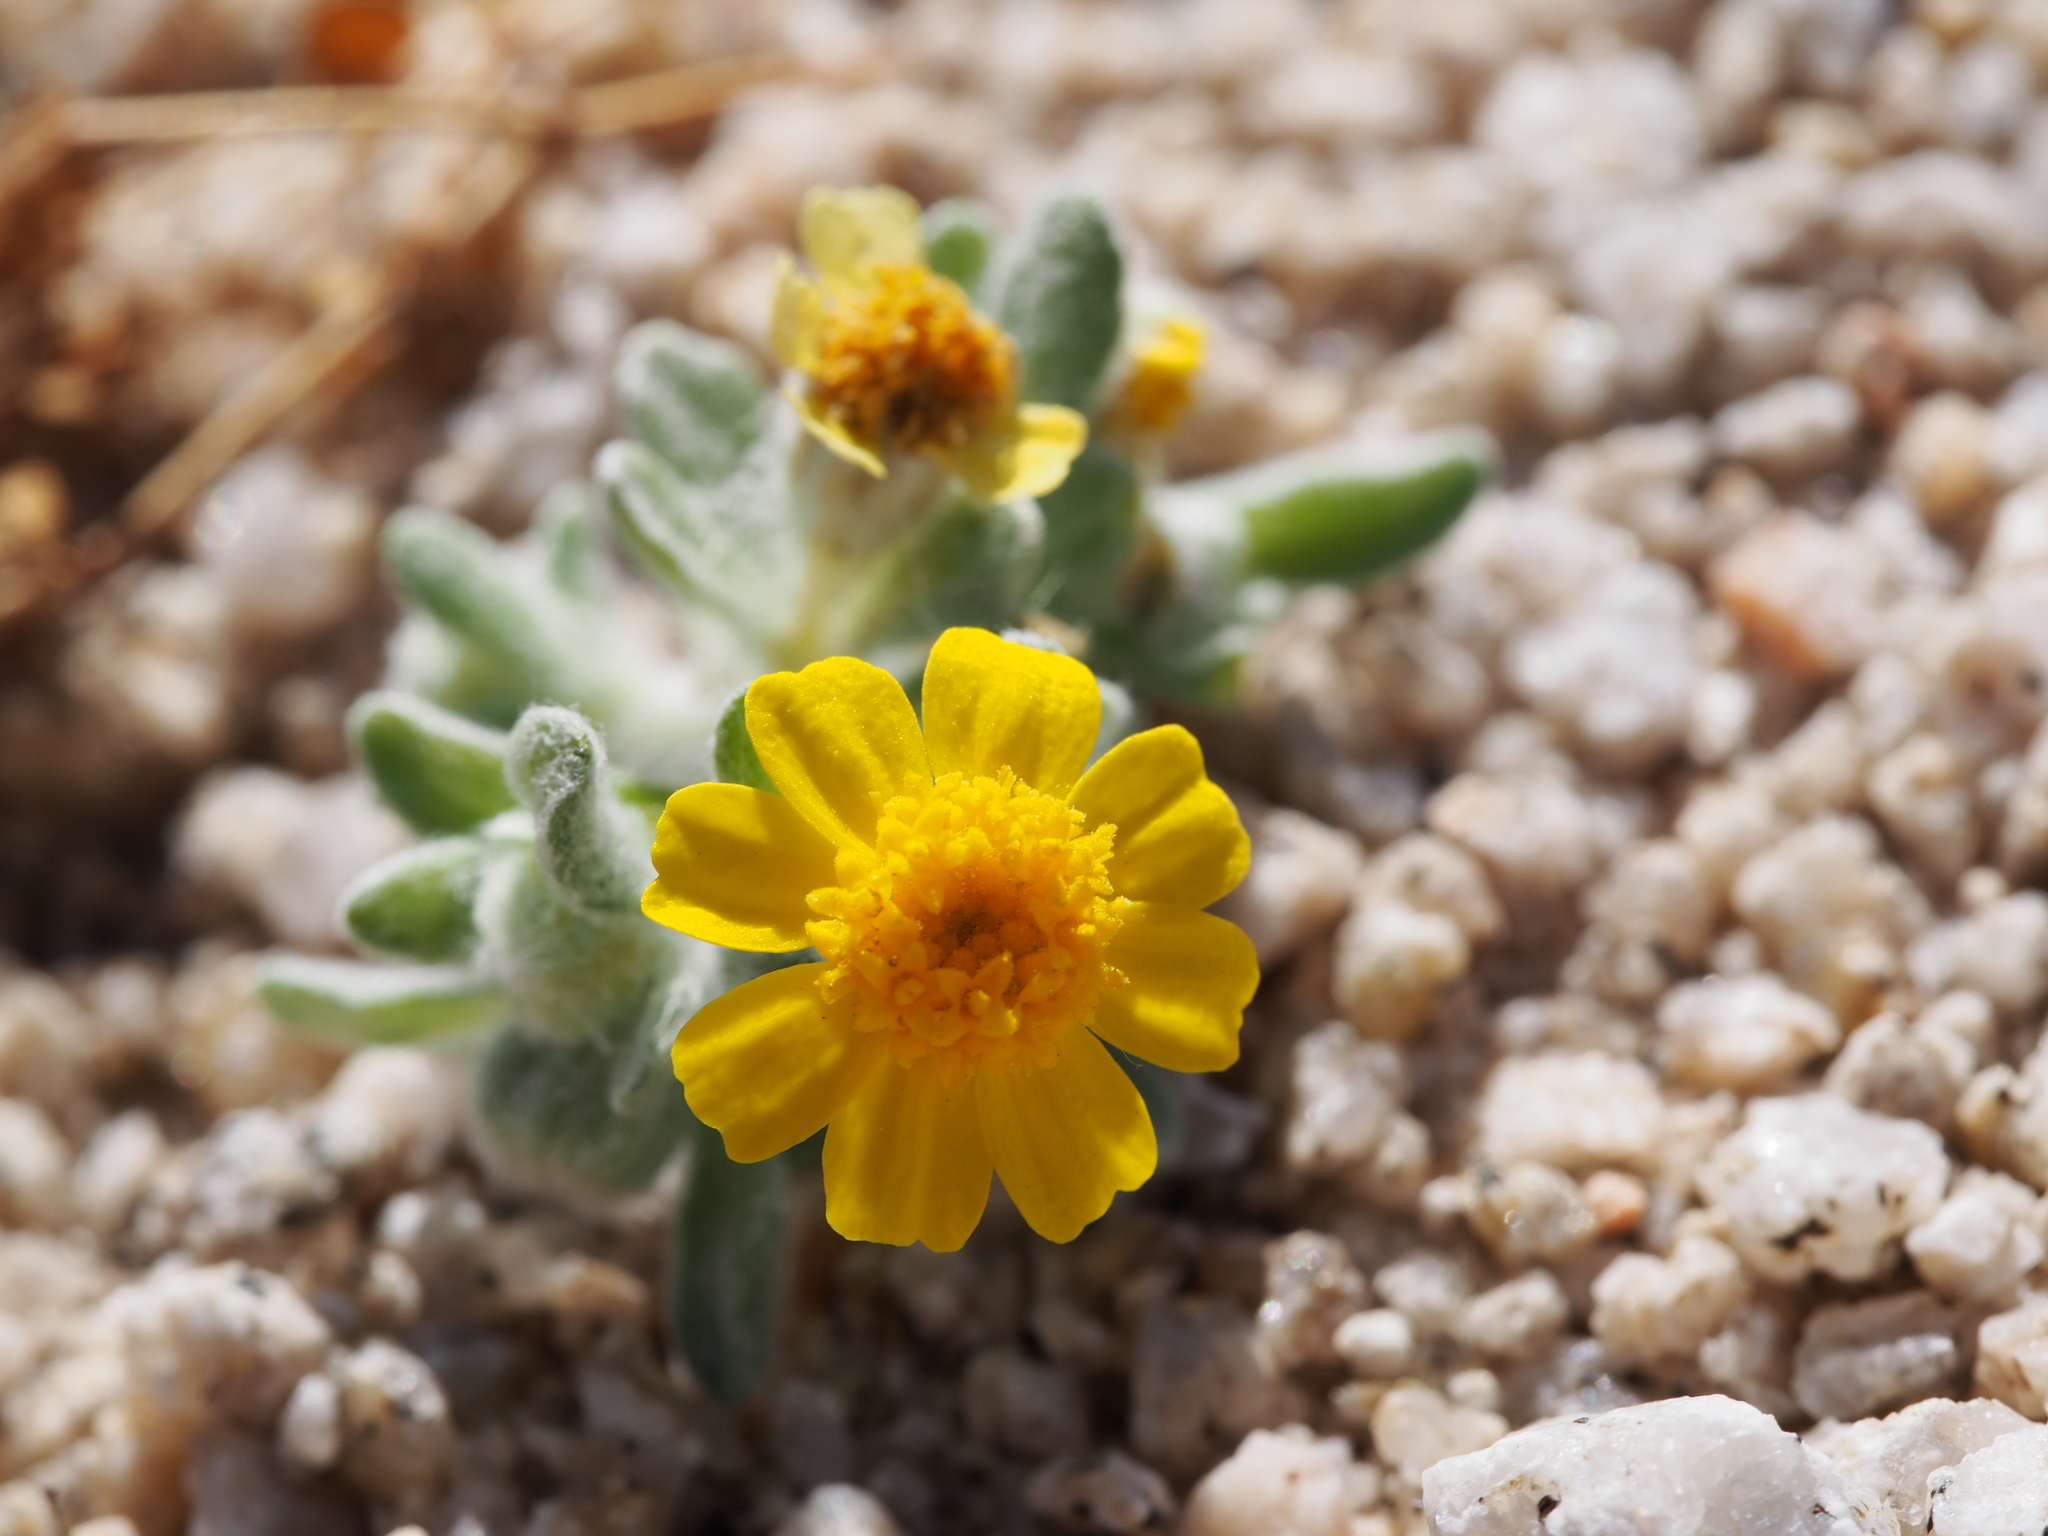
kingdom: Plantae
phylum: Tracheophyta
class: Magnoliopsida
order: Asterales
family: Asteraceae
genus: Eriophyllum
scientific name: Eriophyllum wallacei
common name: Wallace's woolly daisy
